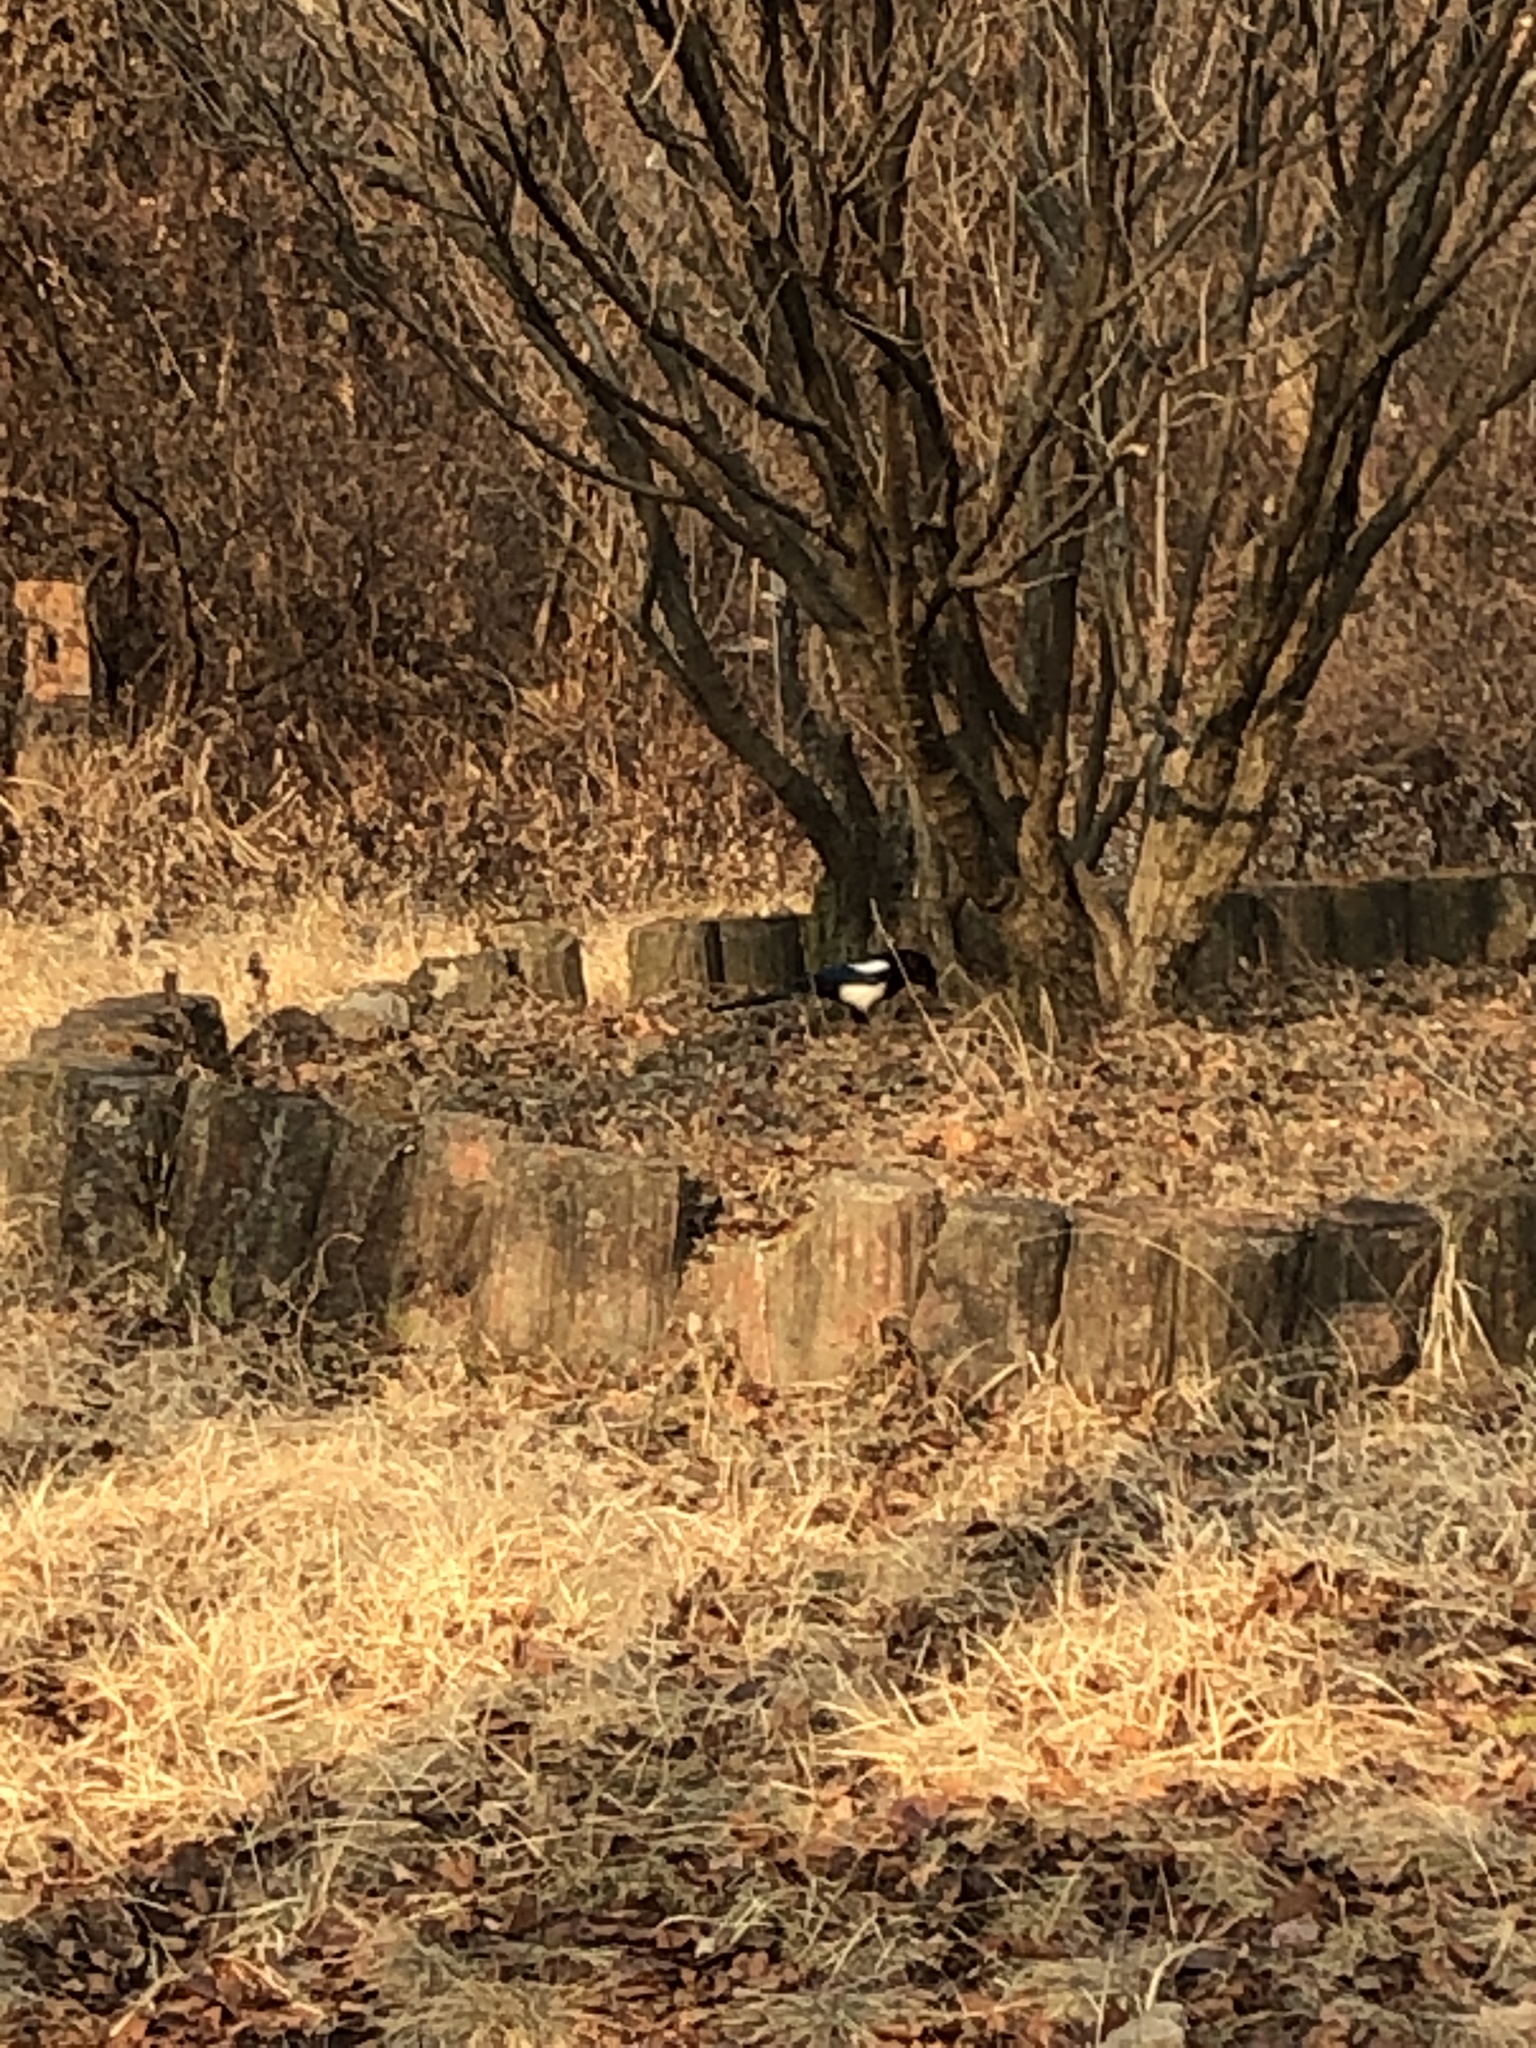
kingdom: Animalia
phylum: Chordata
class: Aves
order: Passeriformes
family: Corvidae
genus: Pica
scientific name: Pica serica
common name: Oriental magpie
